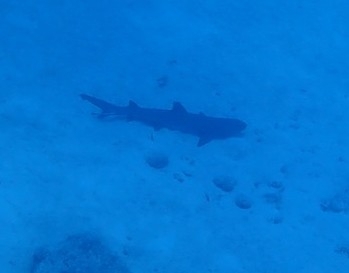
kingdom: Animalia
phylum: Chordata
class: Elasmobranchii
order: Carcharhiniformes
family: Carcharhinidae
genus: Triaenodon
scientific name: Triaenodon obesus
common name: Whitetip reef shark
